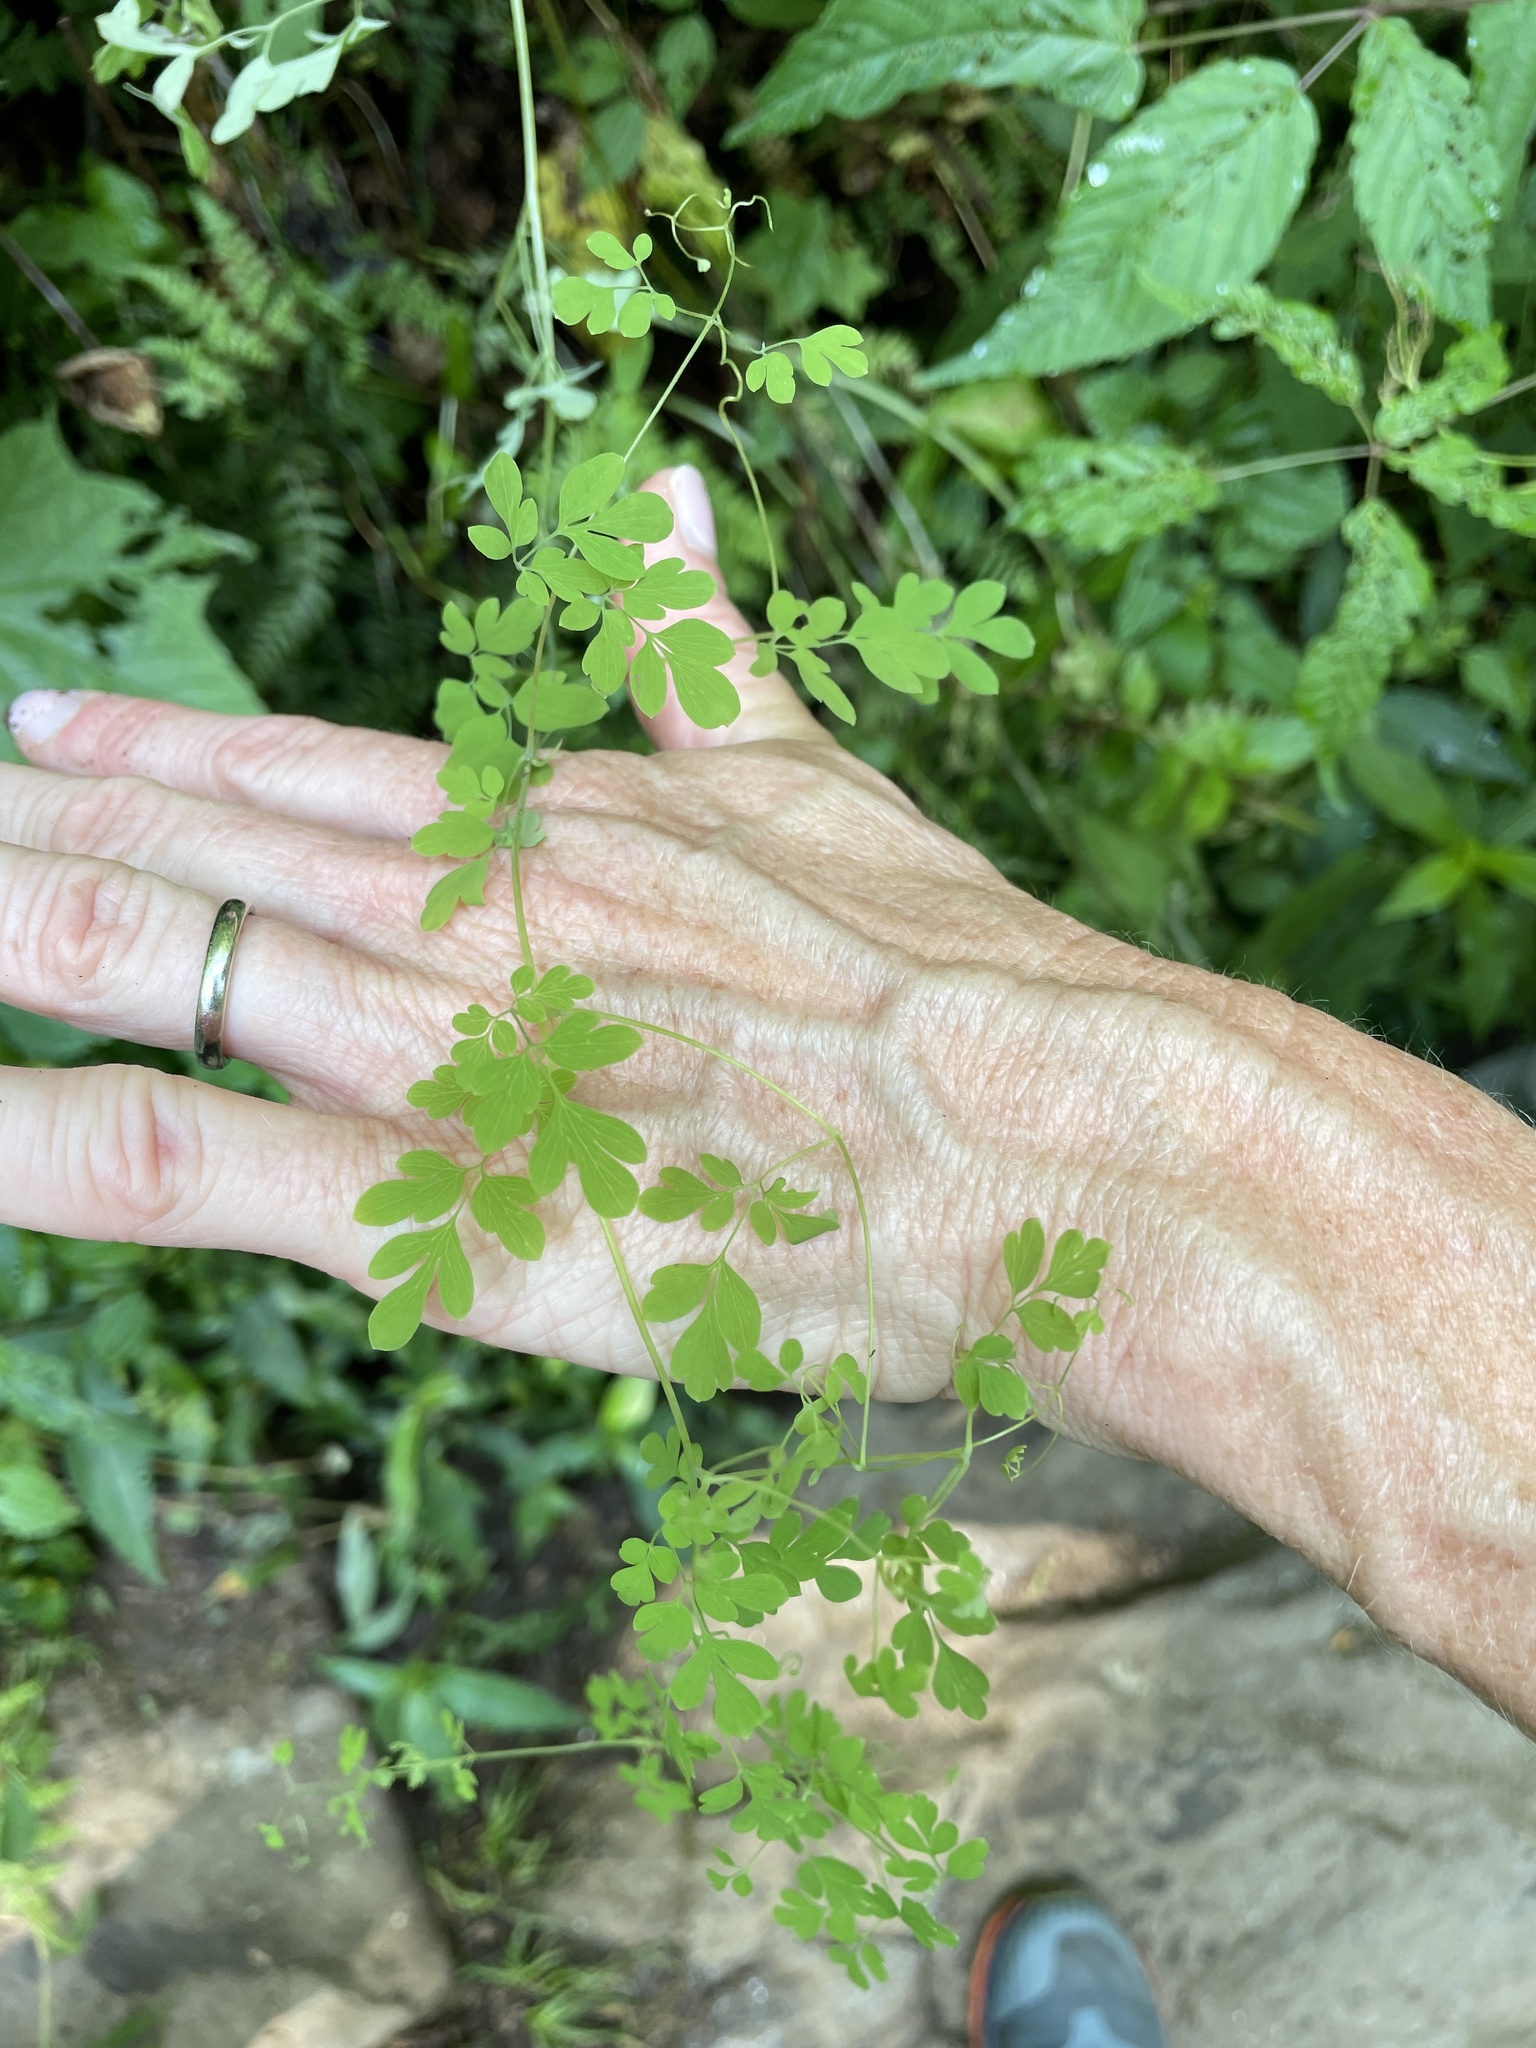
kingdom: Plantae
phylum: Tracheophyta
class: Magnoliopsida
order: Ranunculales
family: Papaveraceae
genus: Adlumia
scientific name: Adlumia fungosa
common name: Mountain-fringe
